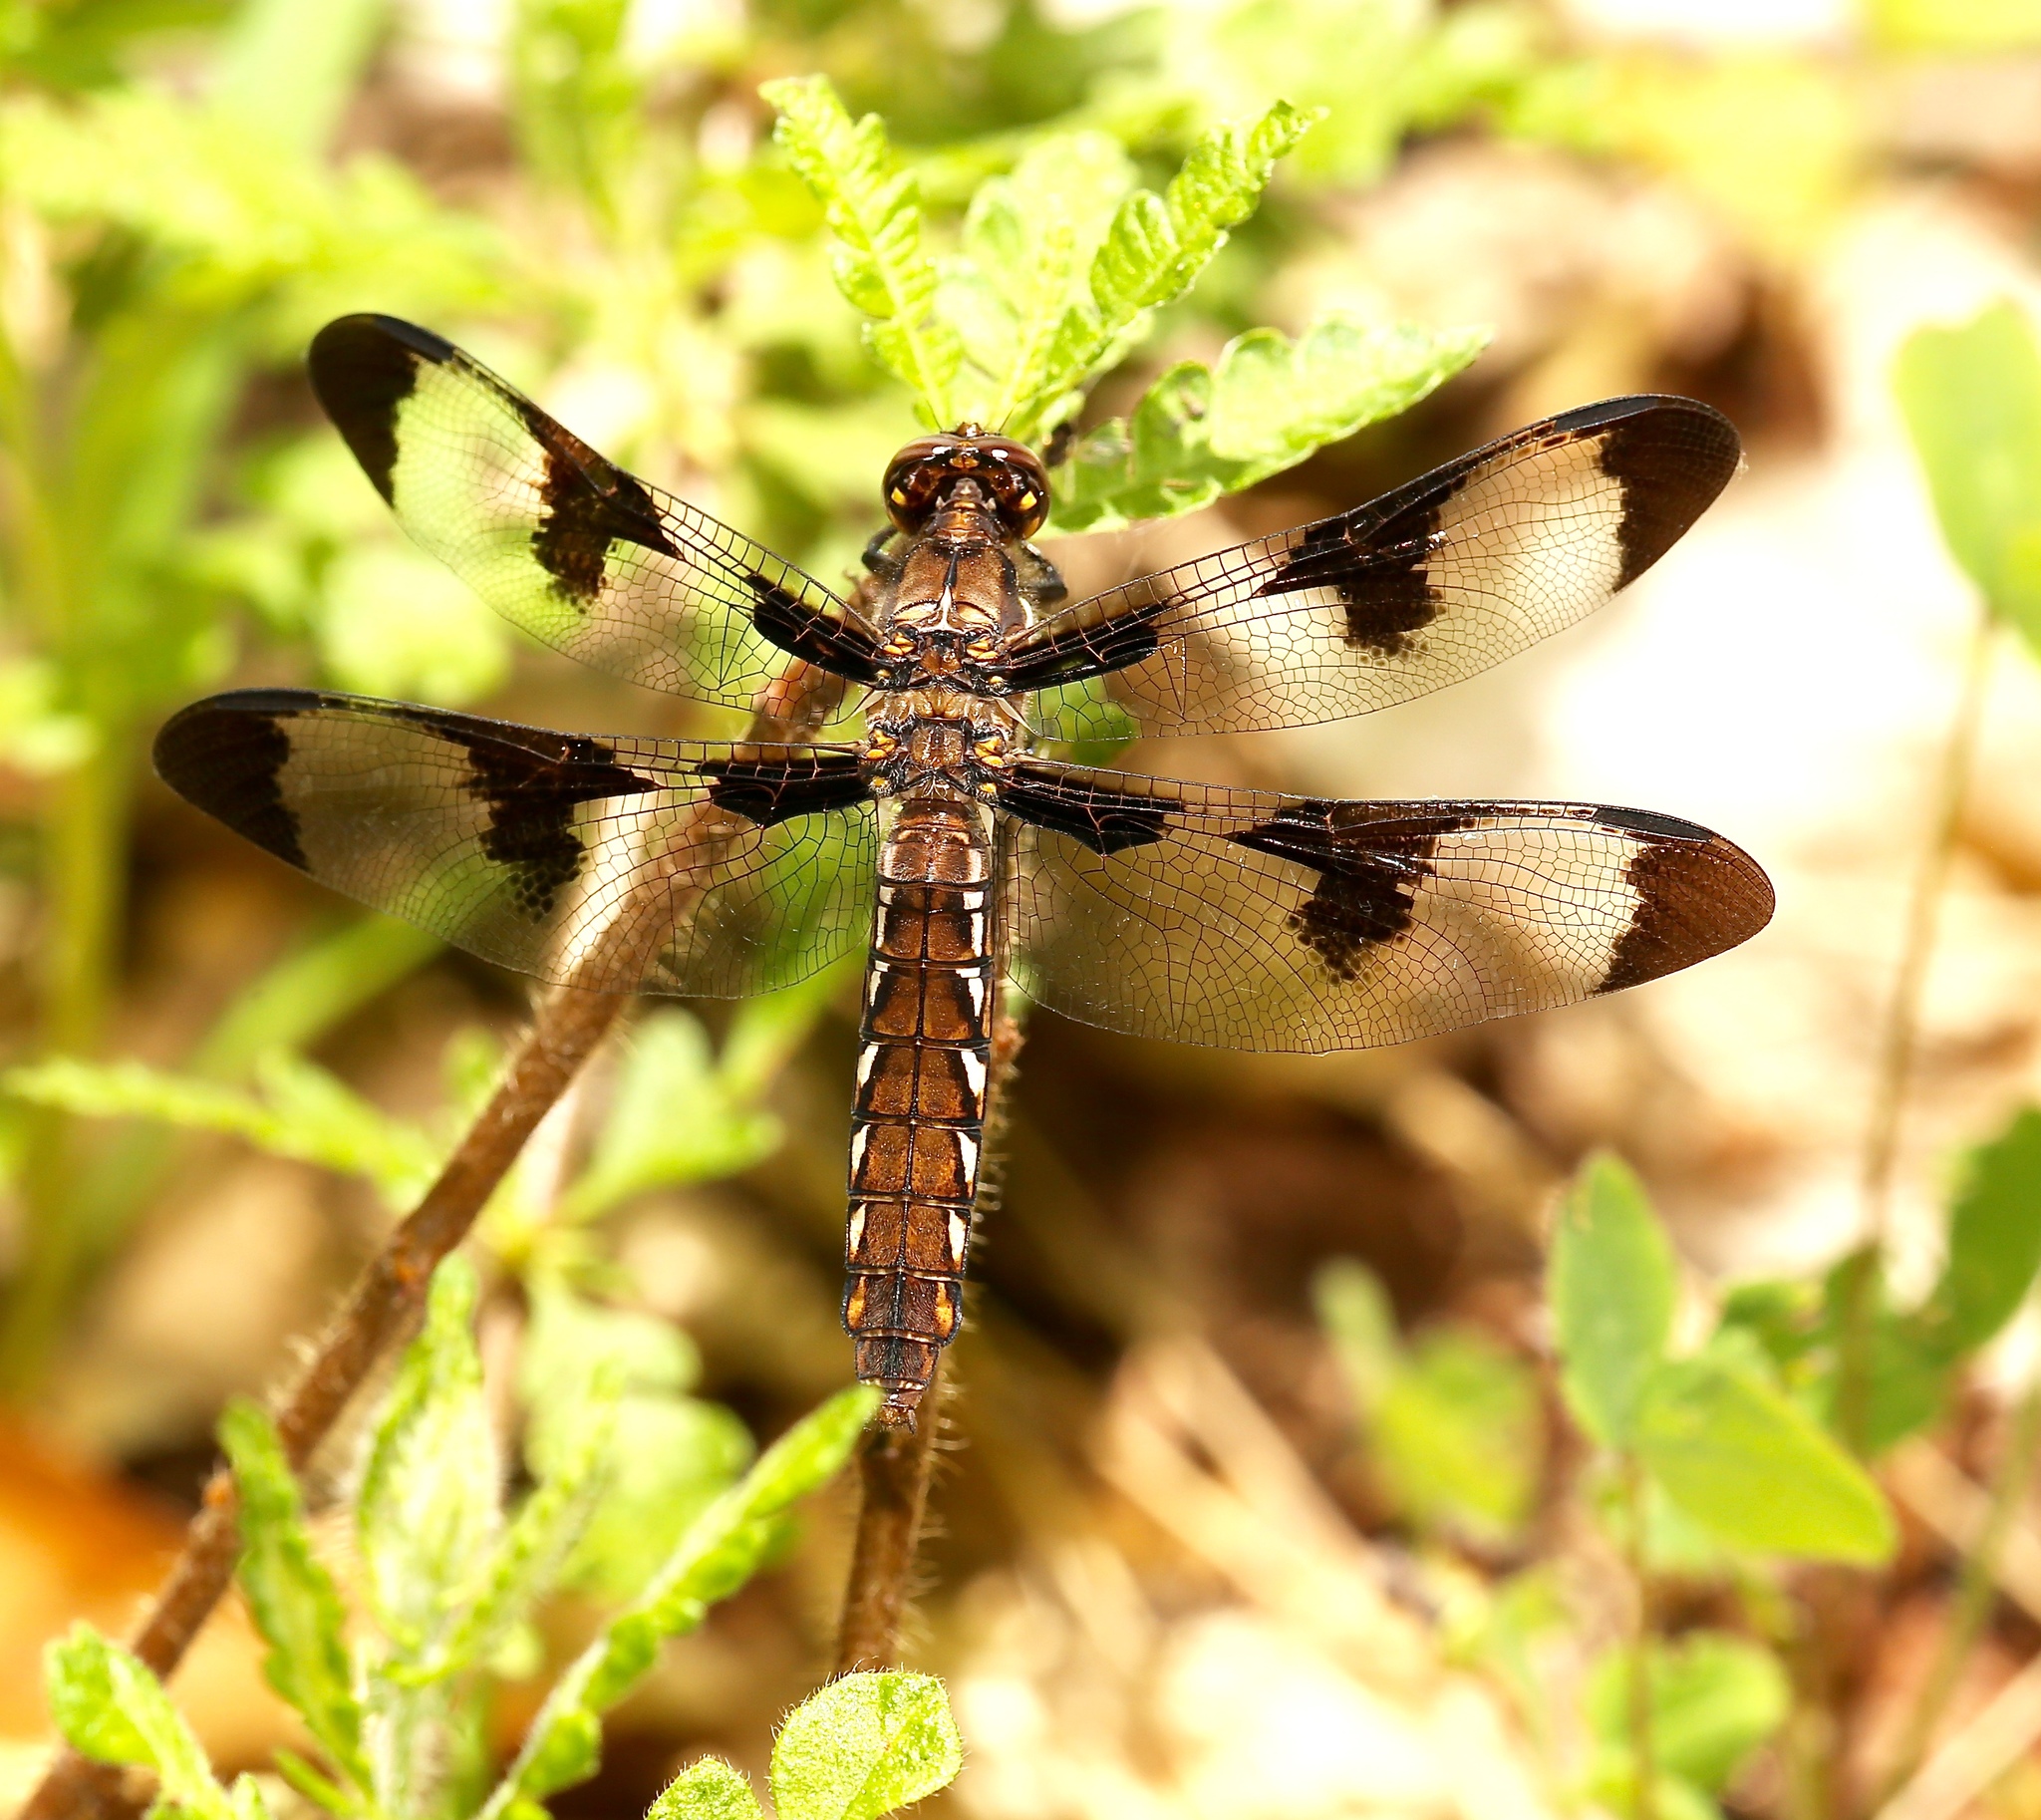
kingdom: Animalia
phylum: Arthropoda
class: Insecta
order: Odonata
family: Libellulidae
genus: Plathemis
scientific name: Plathemis lydia
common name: Common whitetail
